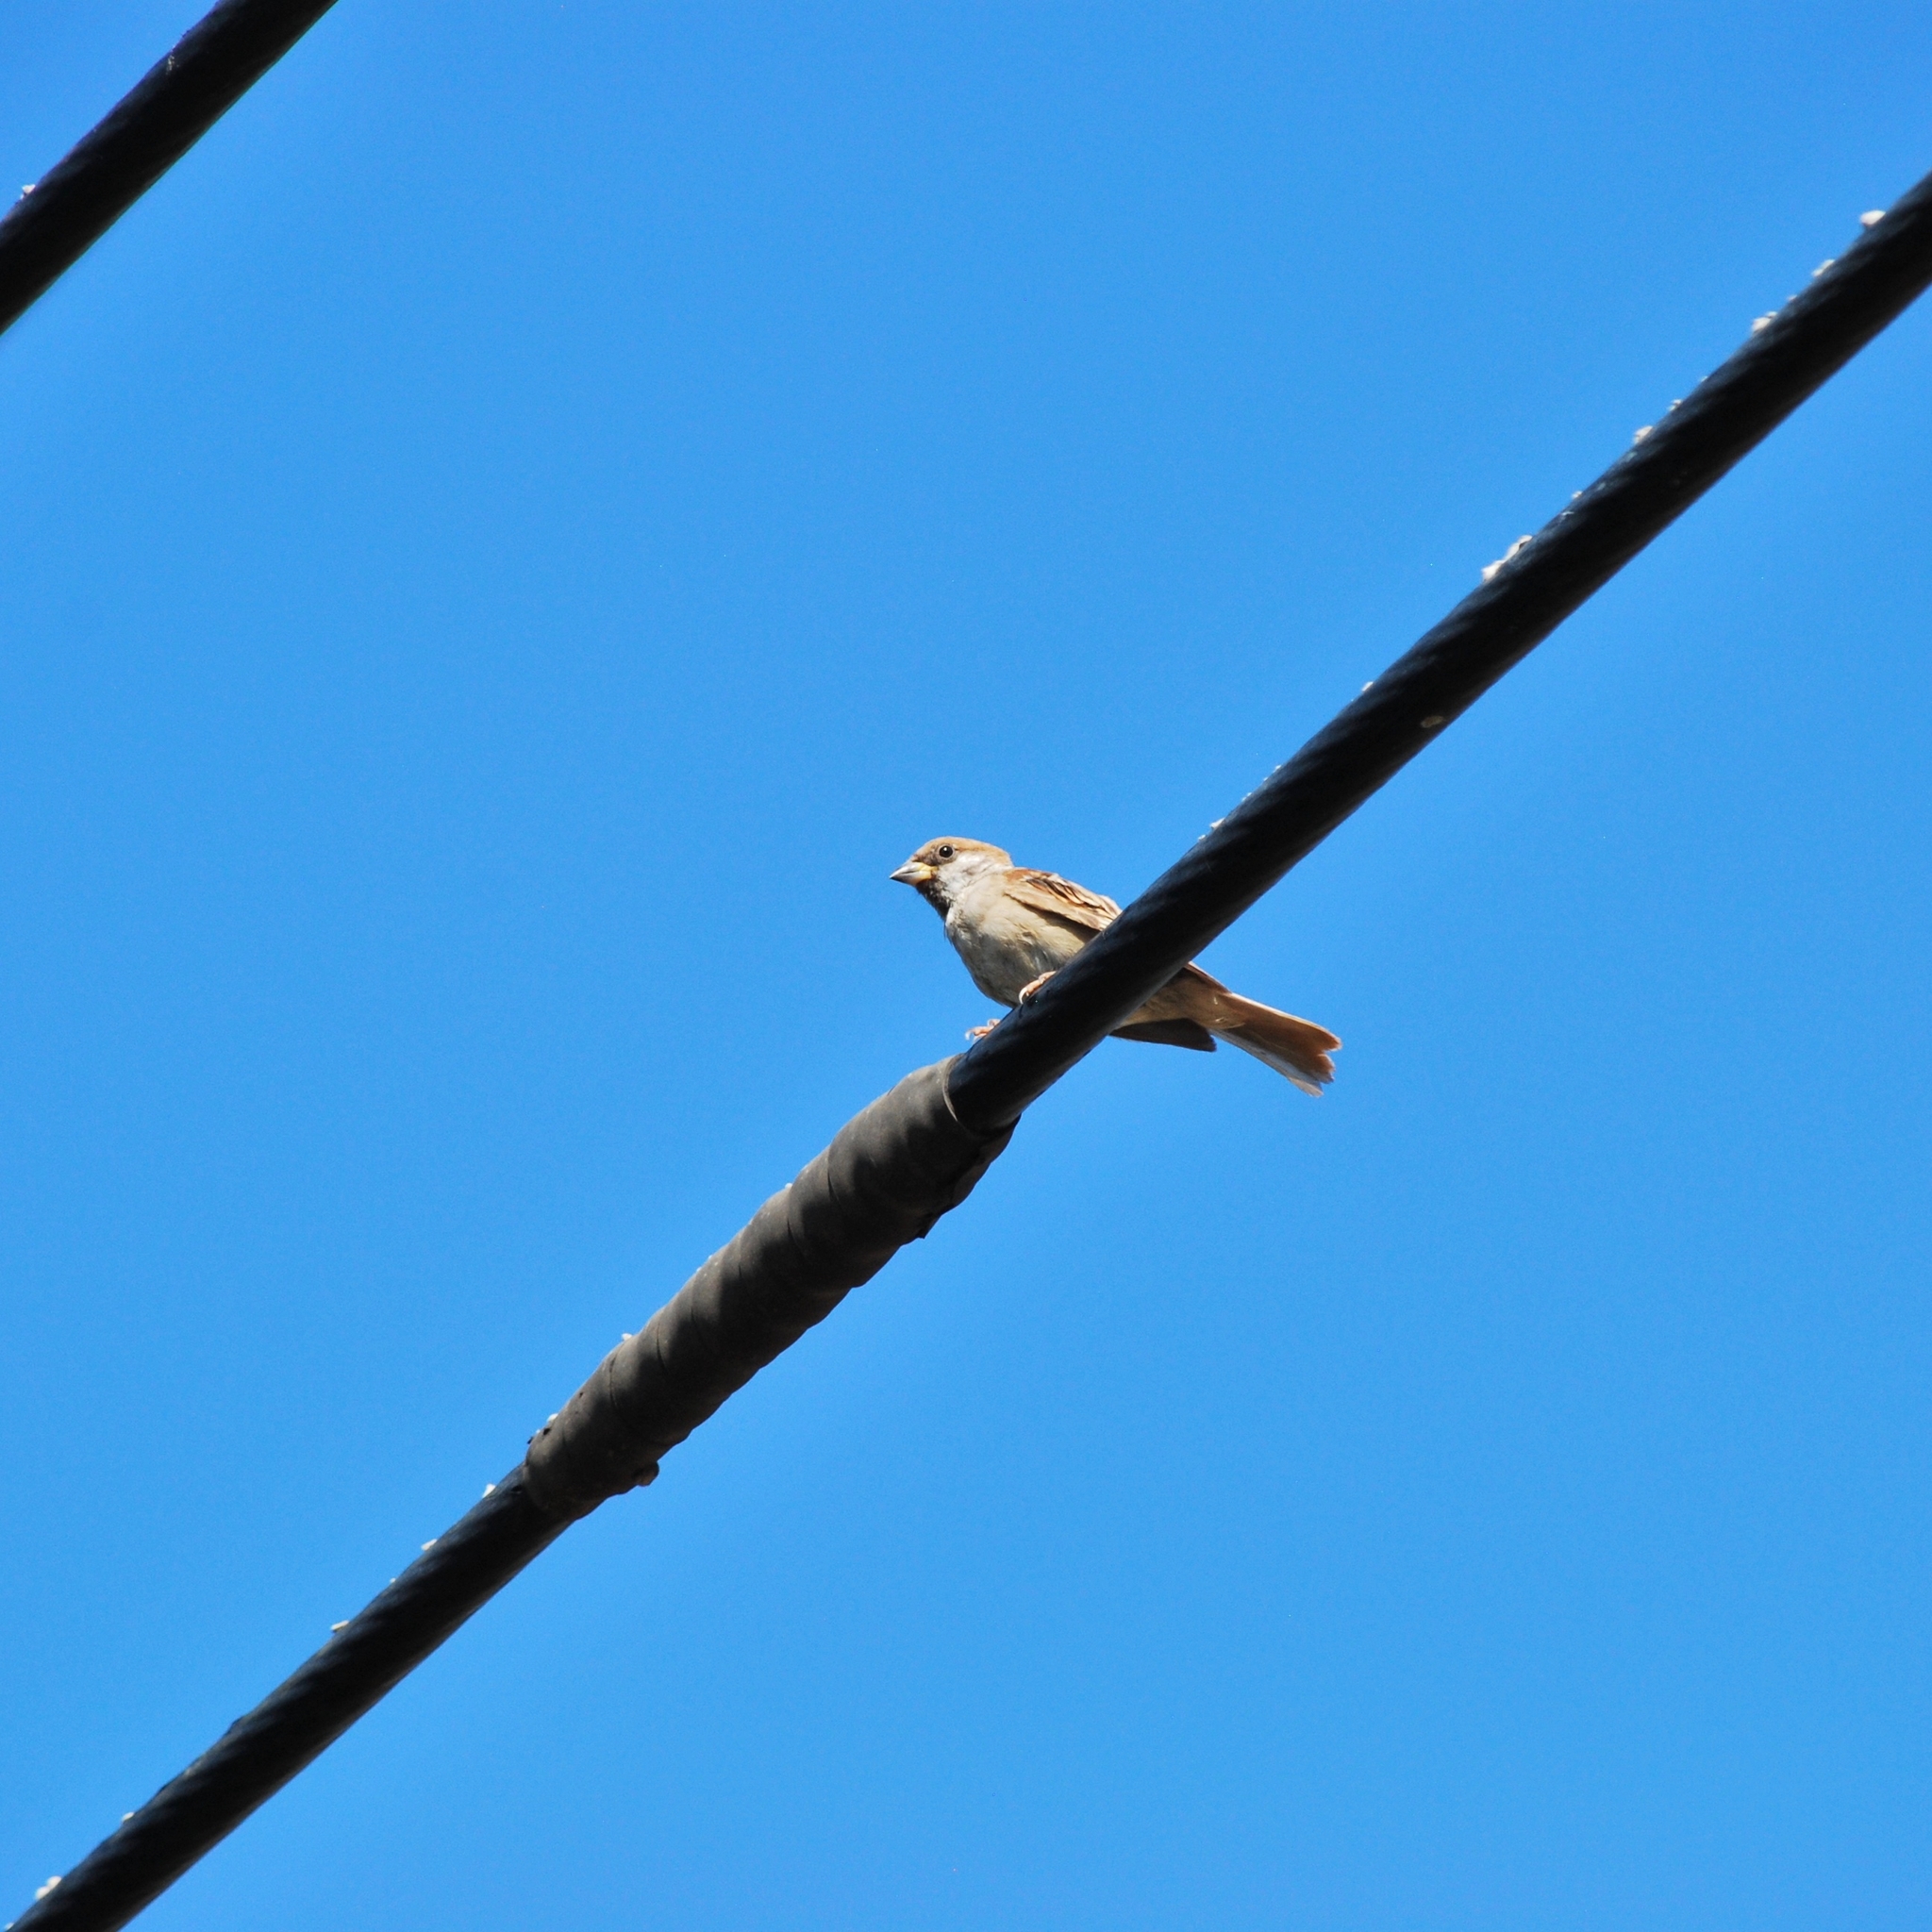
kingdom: Animalia
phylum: Chordata
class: Aves
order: Passeriformes
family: Passeridae
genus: Passer
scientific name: Passer montanus
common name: Eurasian tree sparrow
